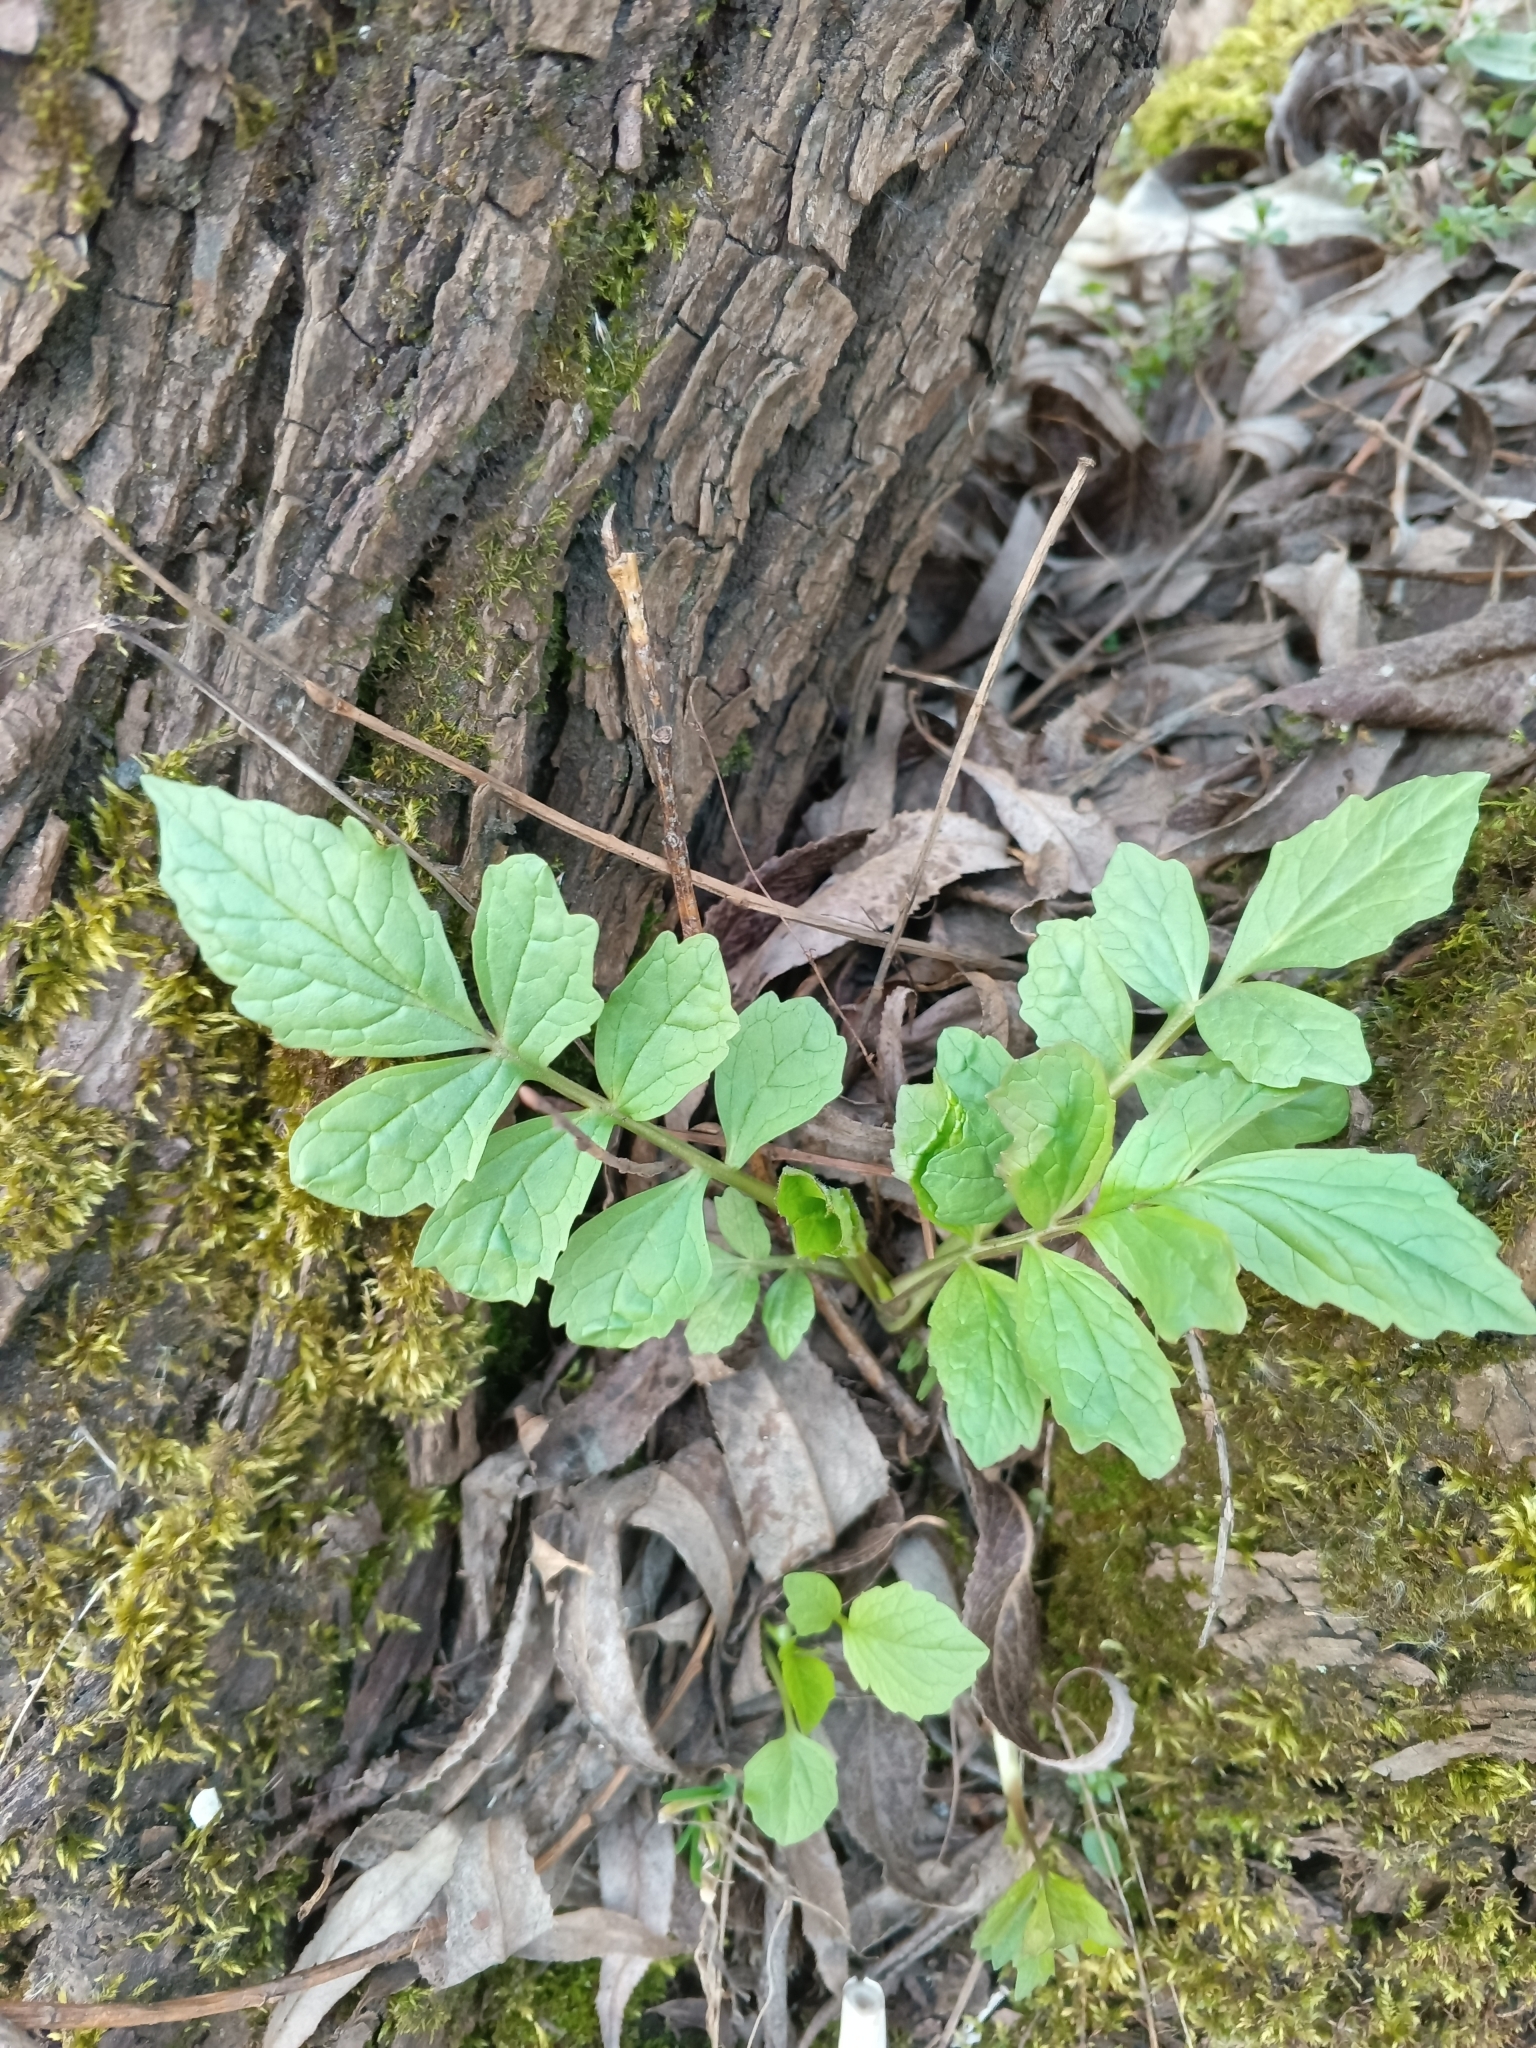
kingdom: Plantae
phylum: Tracheophyta
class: Magnoliopsida
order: Dipsacales
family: Caprifoliaceae
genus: Valeriana
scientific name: Valeriana officinalis
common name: Common valerian
